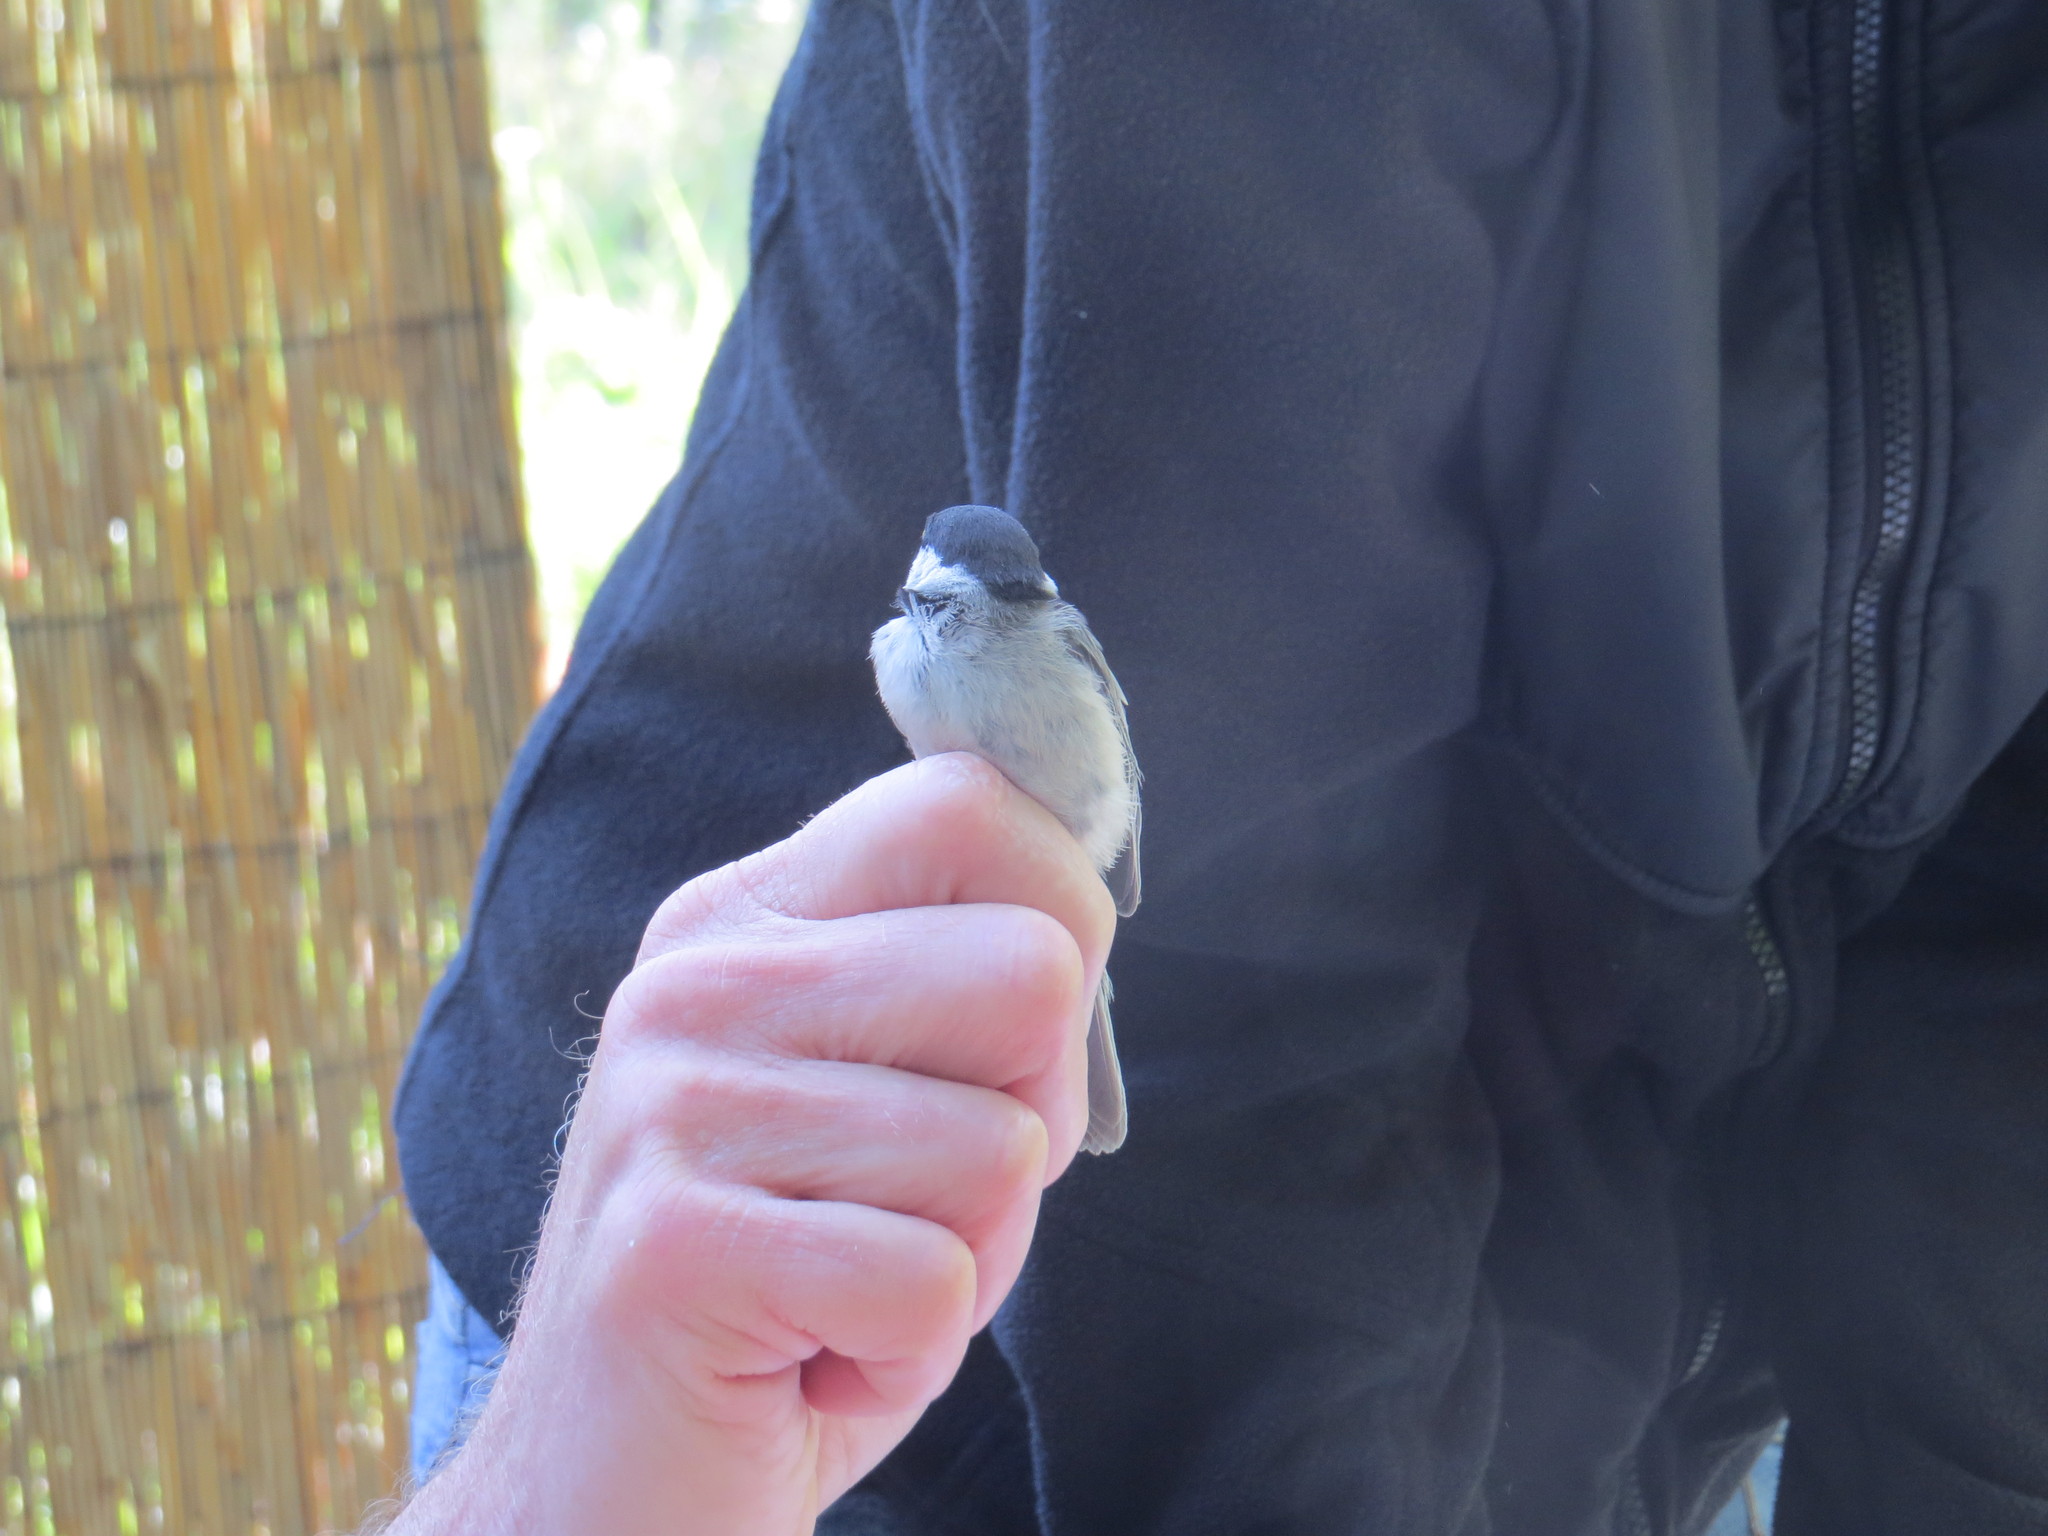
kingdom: Animalia
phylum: Chordata
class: Aves
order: Passeriformes
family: Paridae
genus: Poecile
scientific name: Poecile carolinensis
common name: Carolina chickadee
